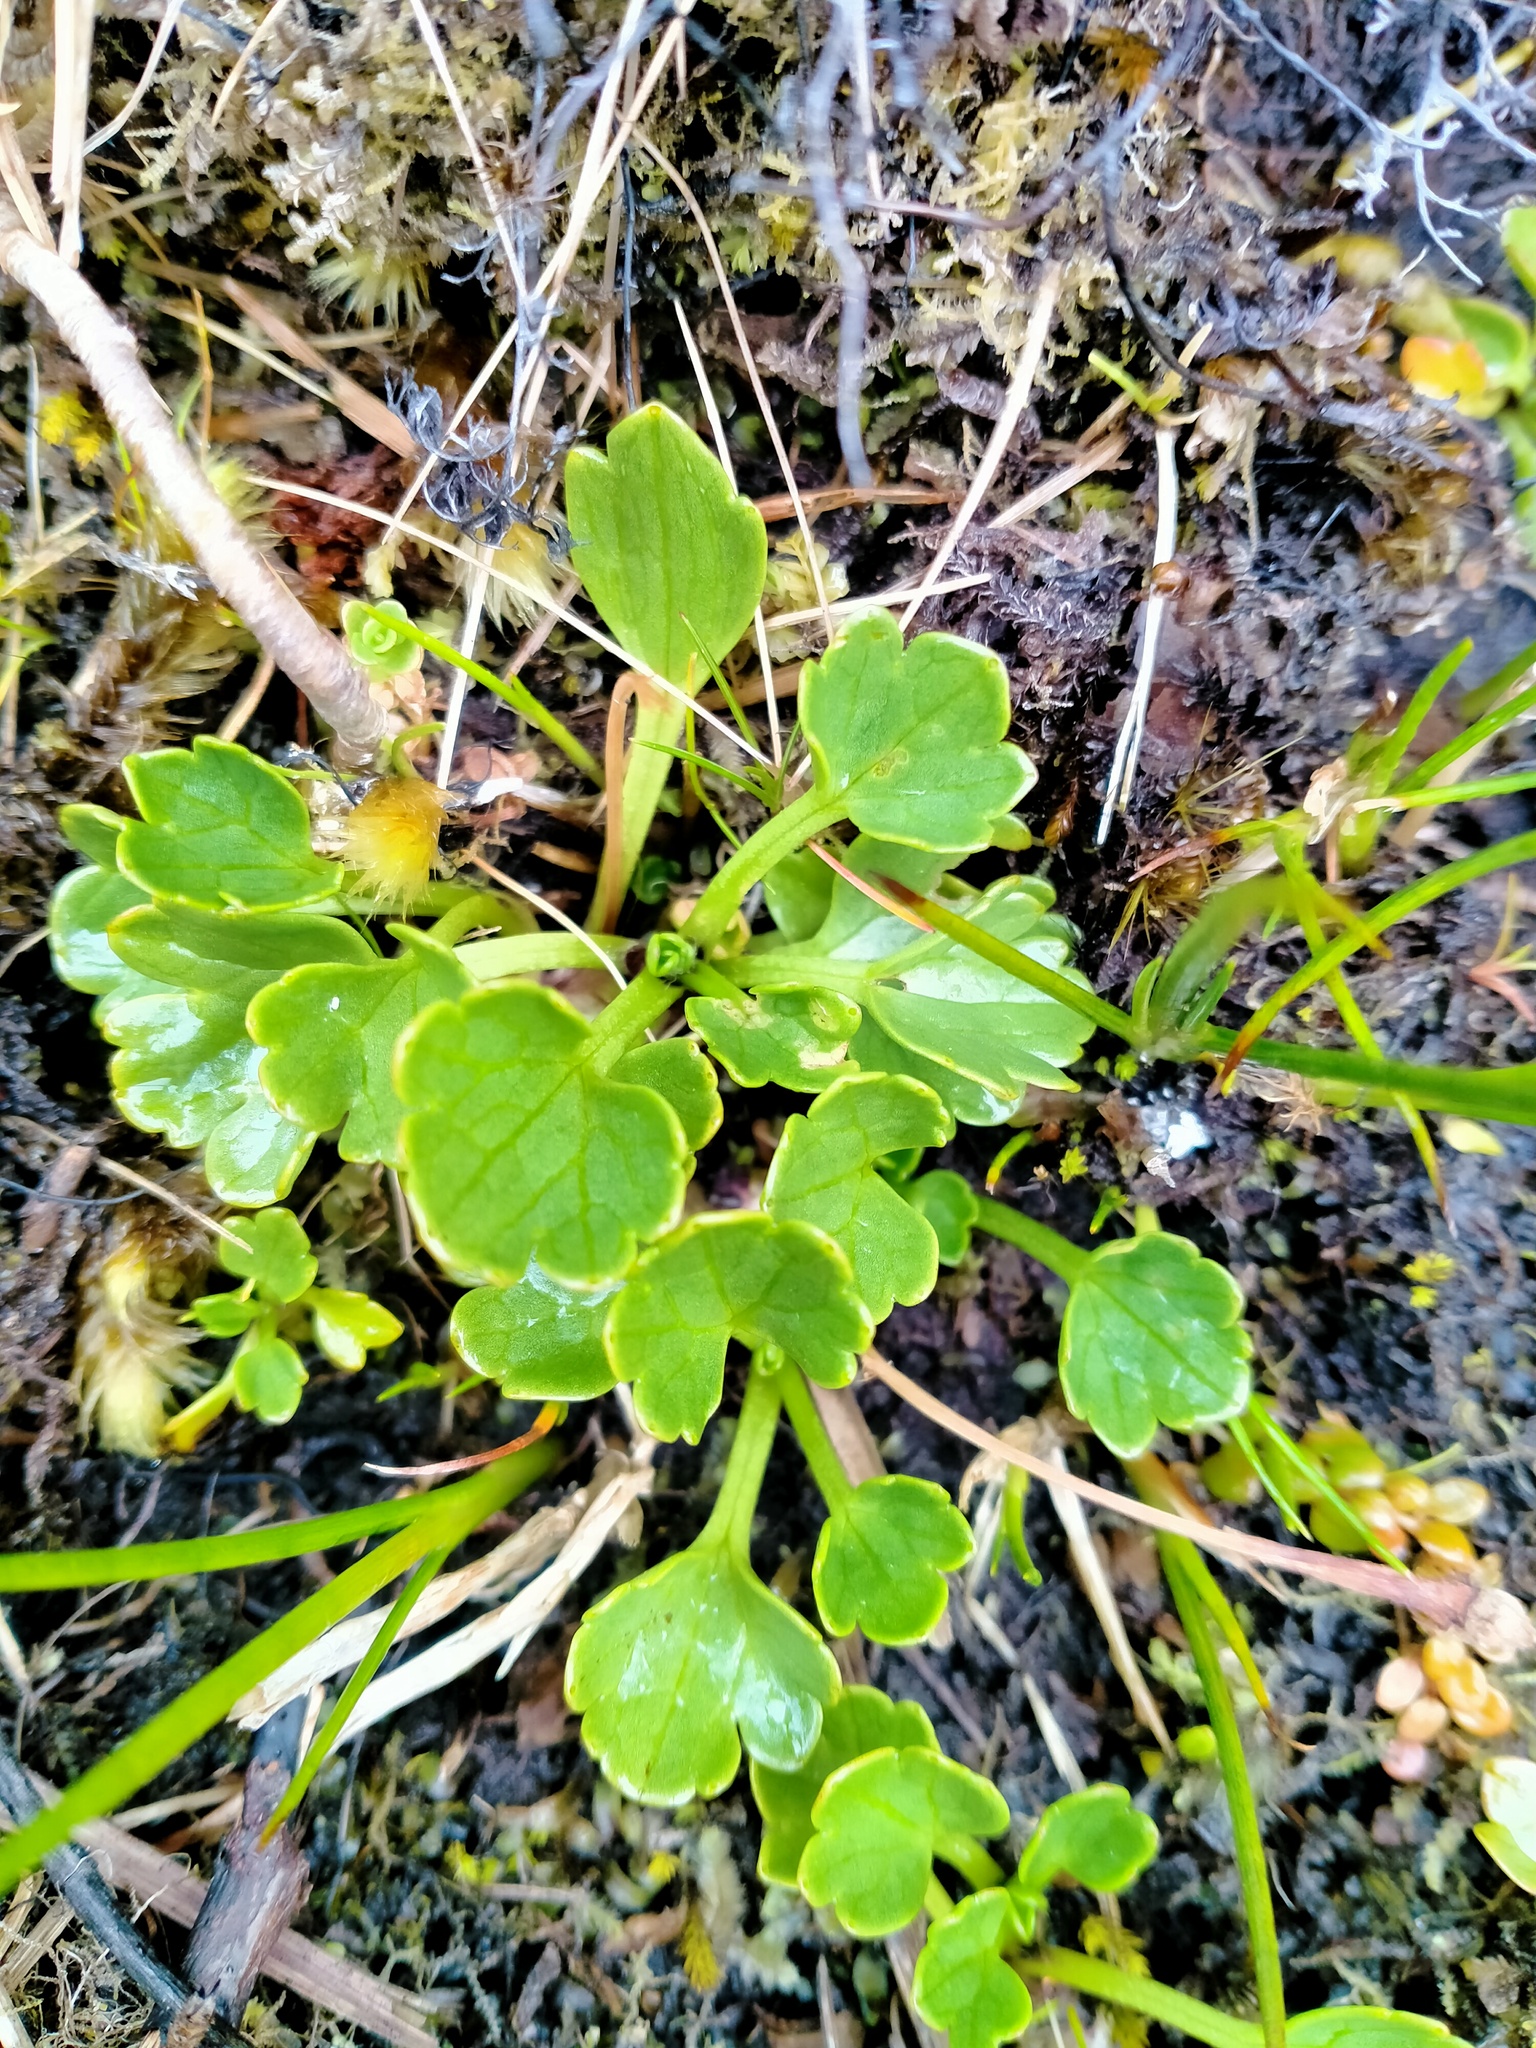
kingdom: Plantae
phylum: Tracheophyta
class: Magnoliopsida
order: Ranunculales
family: Ranunculaceae
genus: Ranunculus
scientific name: Ranunculus pinguis
